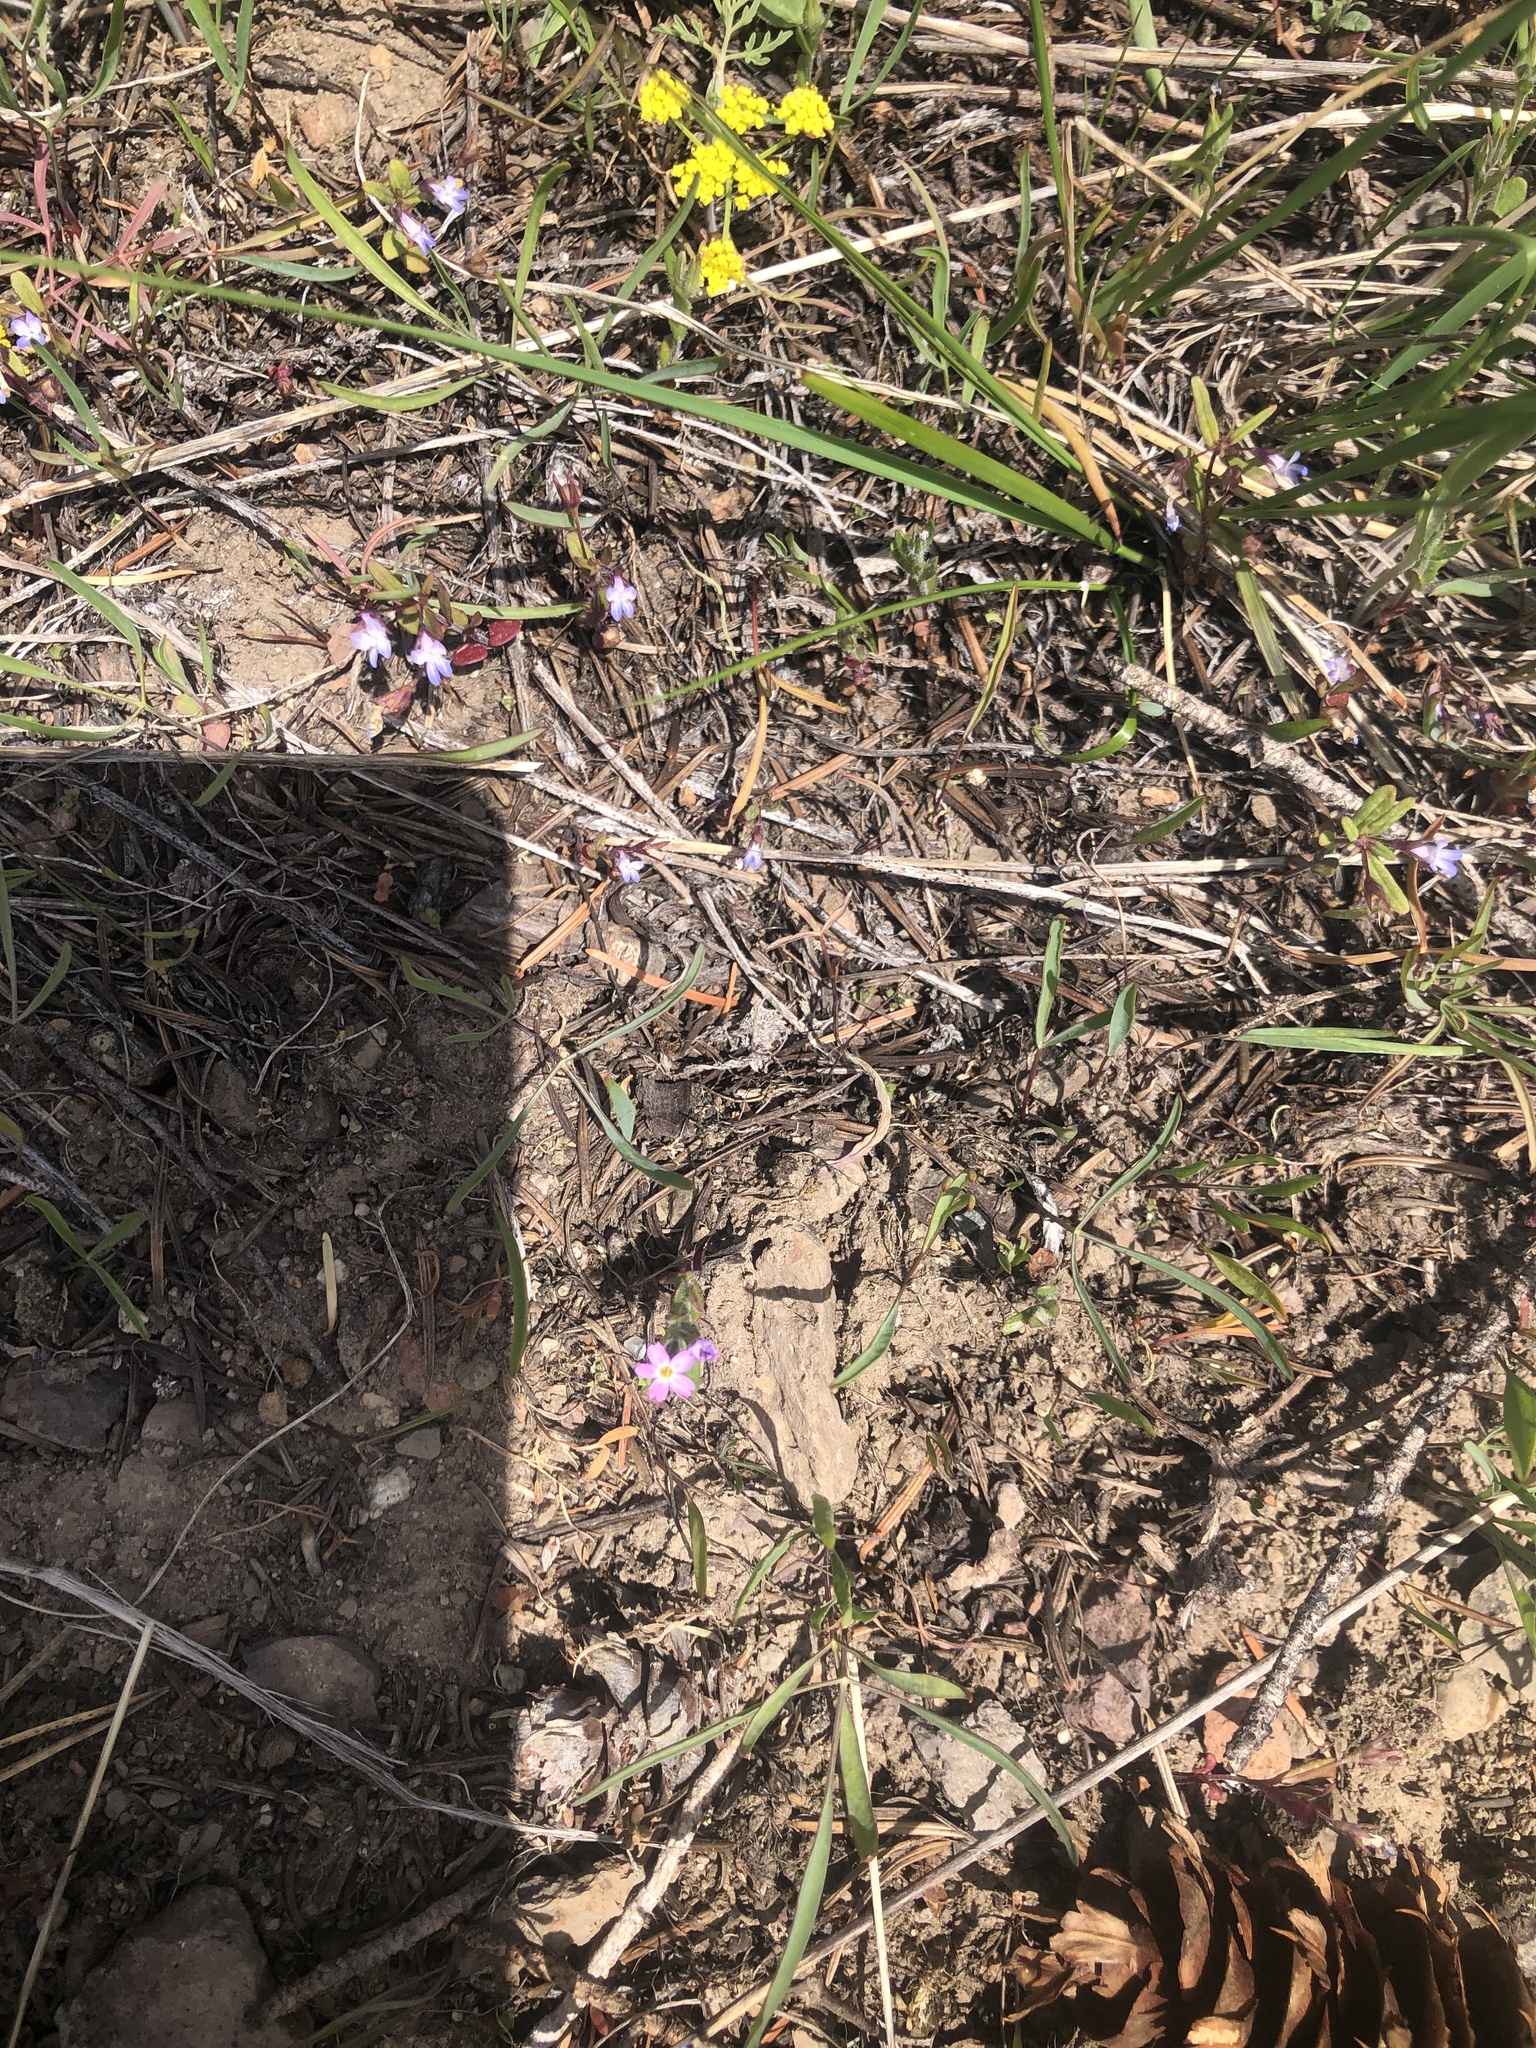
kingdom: Plantae
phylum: Tracheophyta
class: Magnoliopsida
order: Ericales
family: Polemoniaceae
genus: Phlox
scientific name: Phlox gracilis
